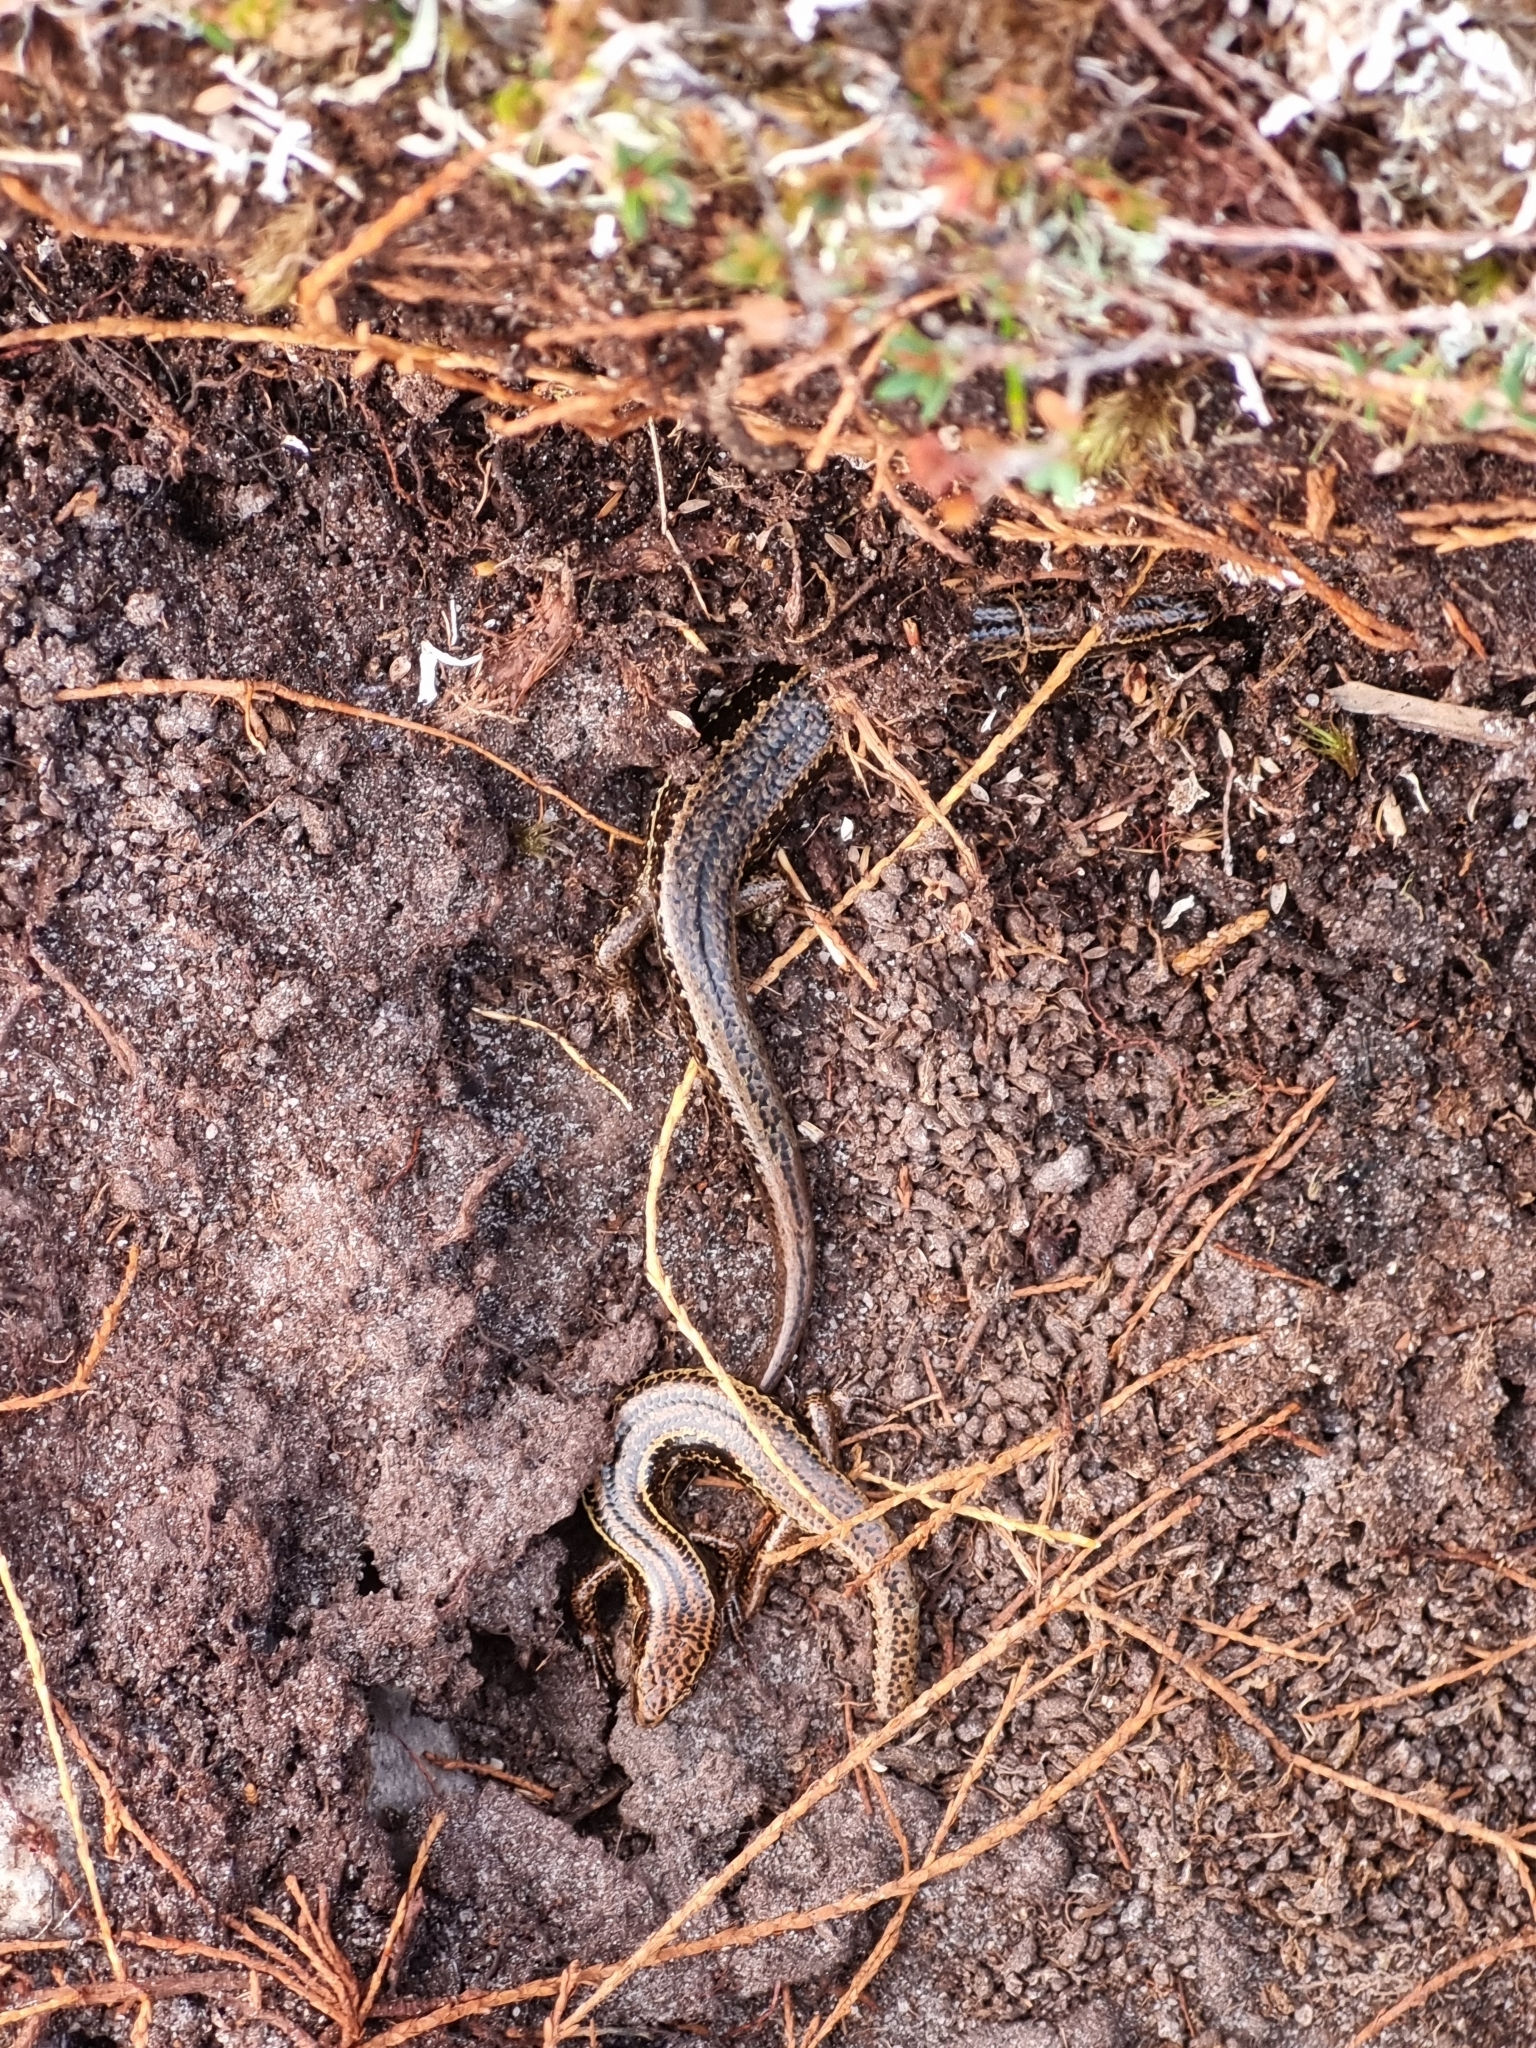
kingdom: Animalia
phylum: Chordata
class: Squamata
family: Scincidae
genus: Oligosoma
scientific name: Oligosoma newmani
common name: Newman’s speckled skink
